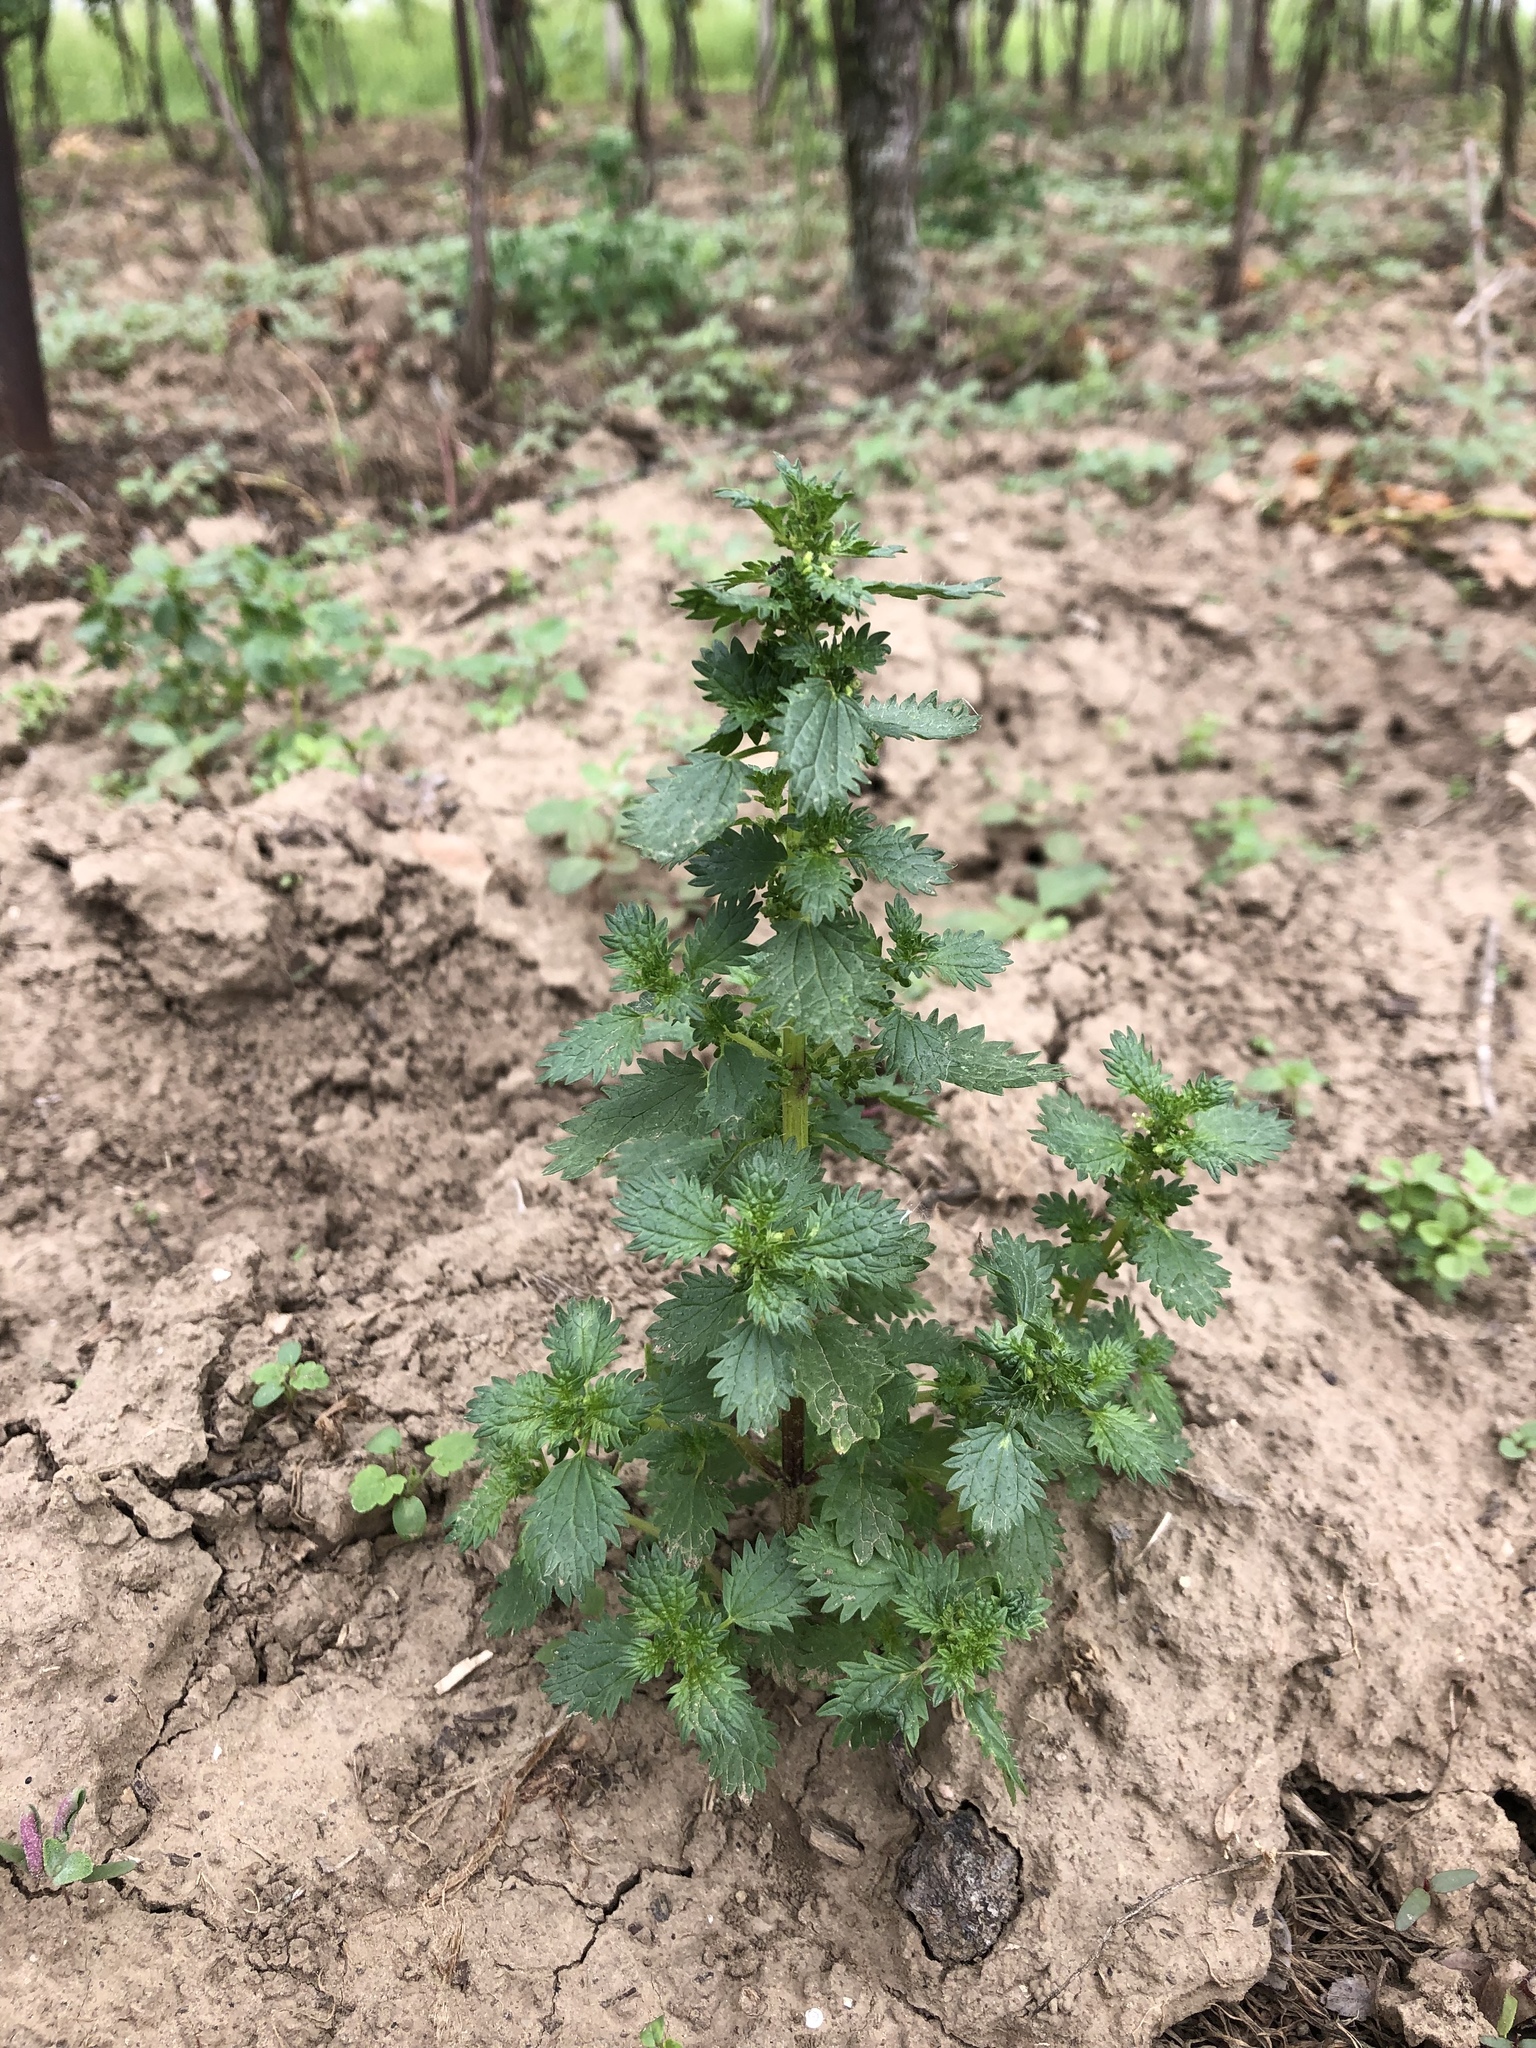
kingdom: Plantae
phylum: Tracheophyta
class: Magnoliopsida
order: Rosales
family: Urticaceae
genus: Urtica
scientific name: Urtica urens
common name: Dwarf nettle
